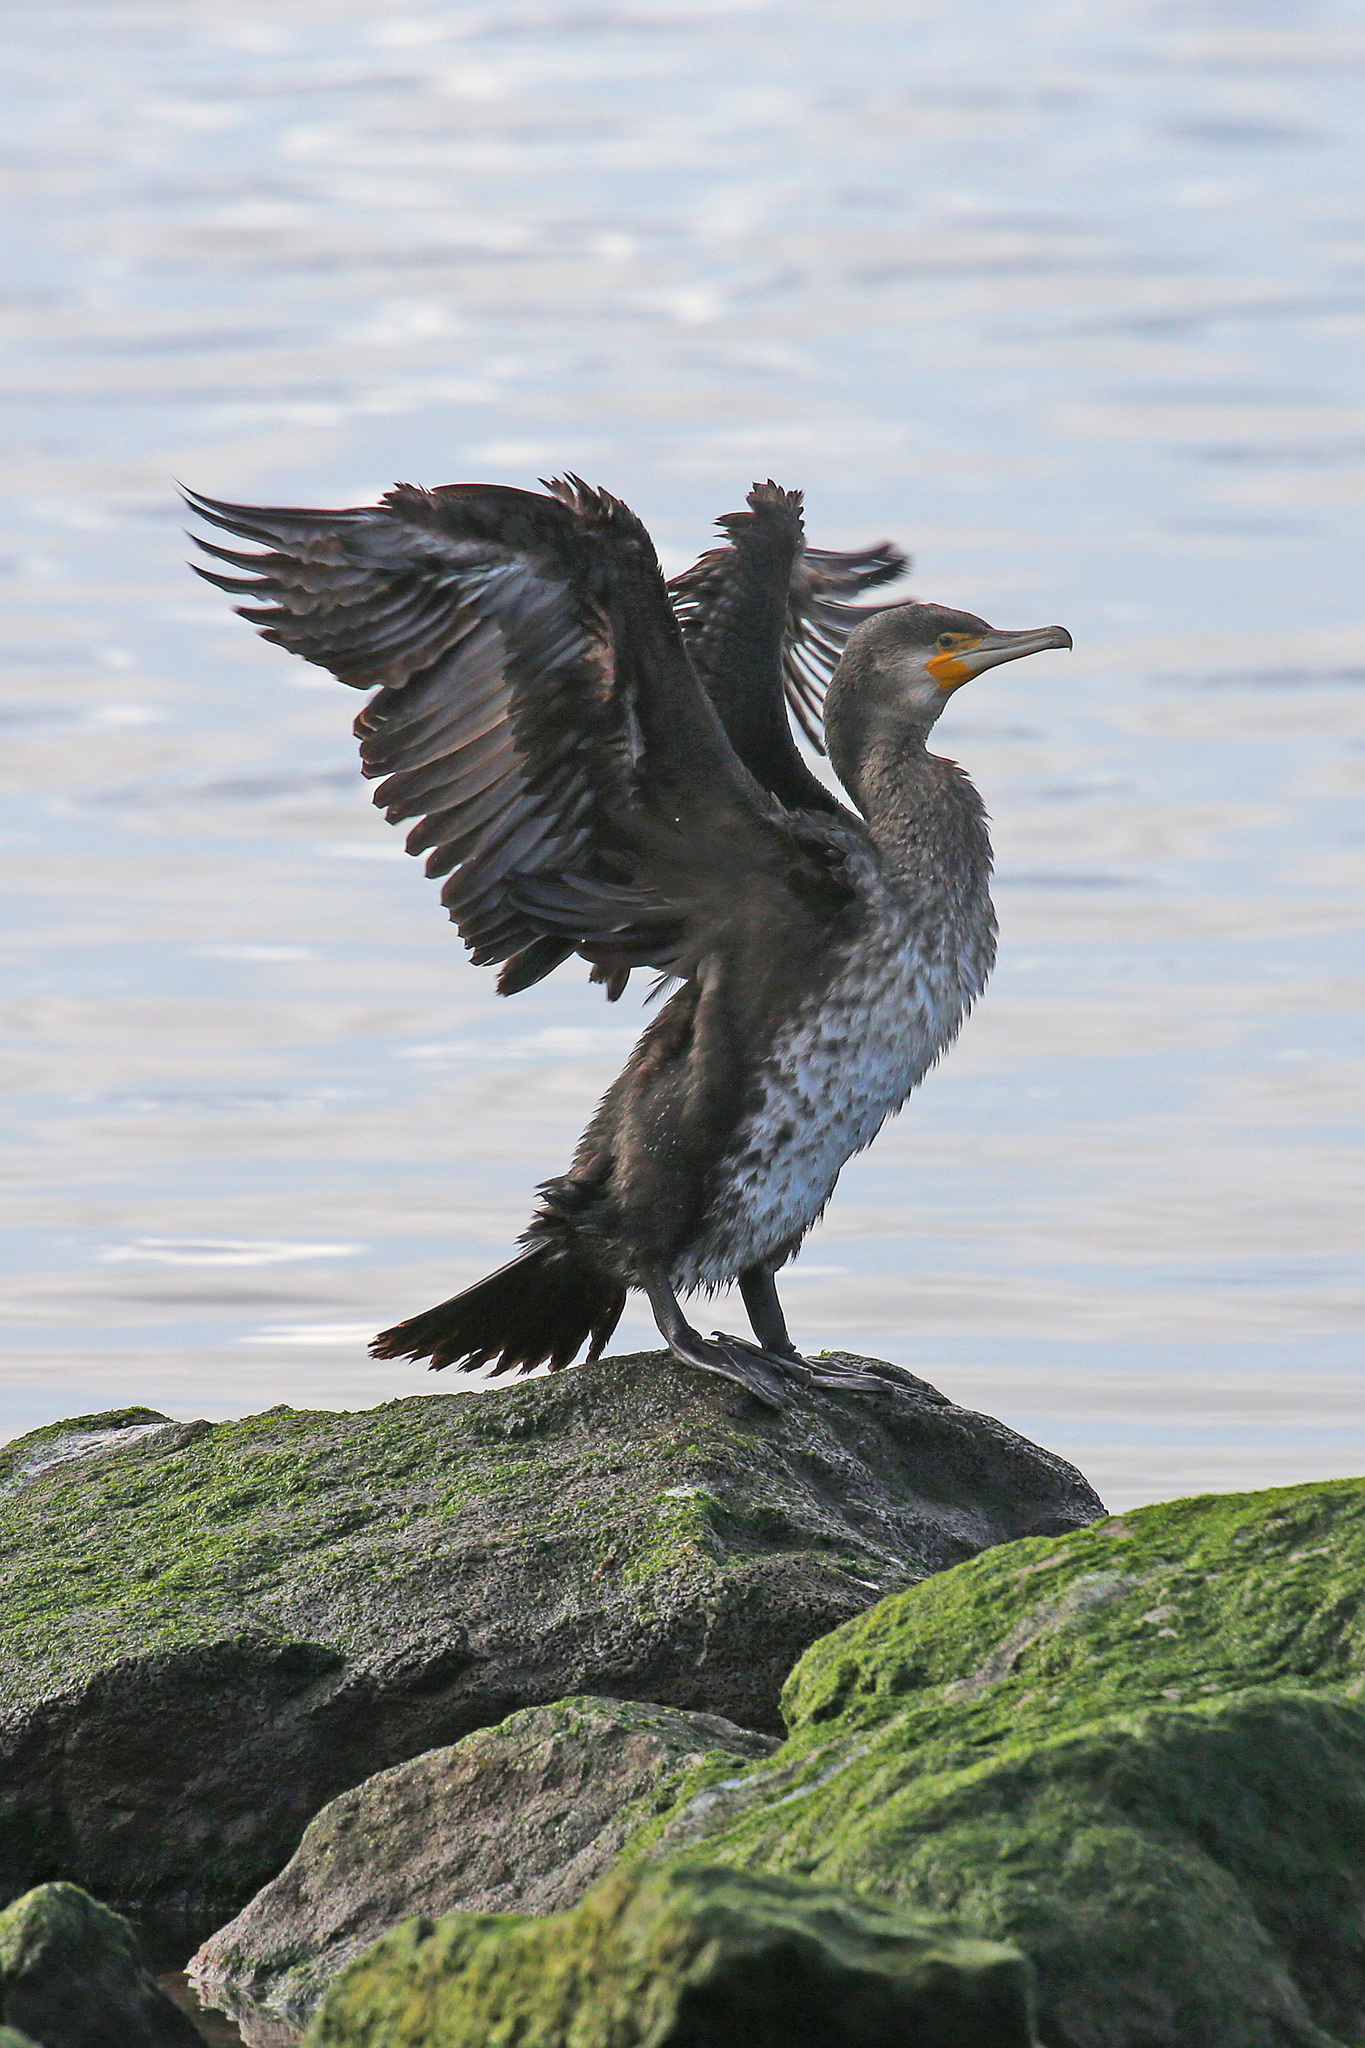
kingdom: Animalia
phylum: Chordata
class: Aves
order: Suliformes
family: Phalacrocoracidae
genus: Phalacrocorax
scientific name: Phalacrocorax carbo
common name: Great cormorant
